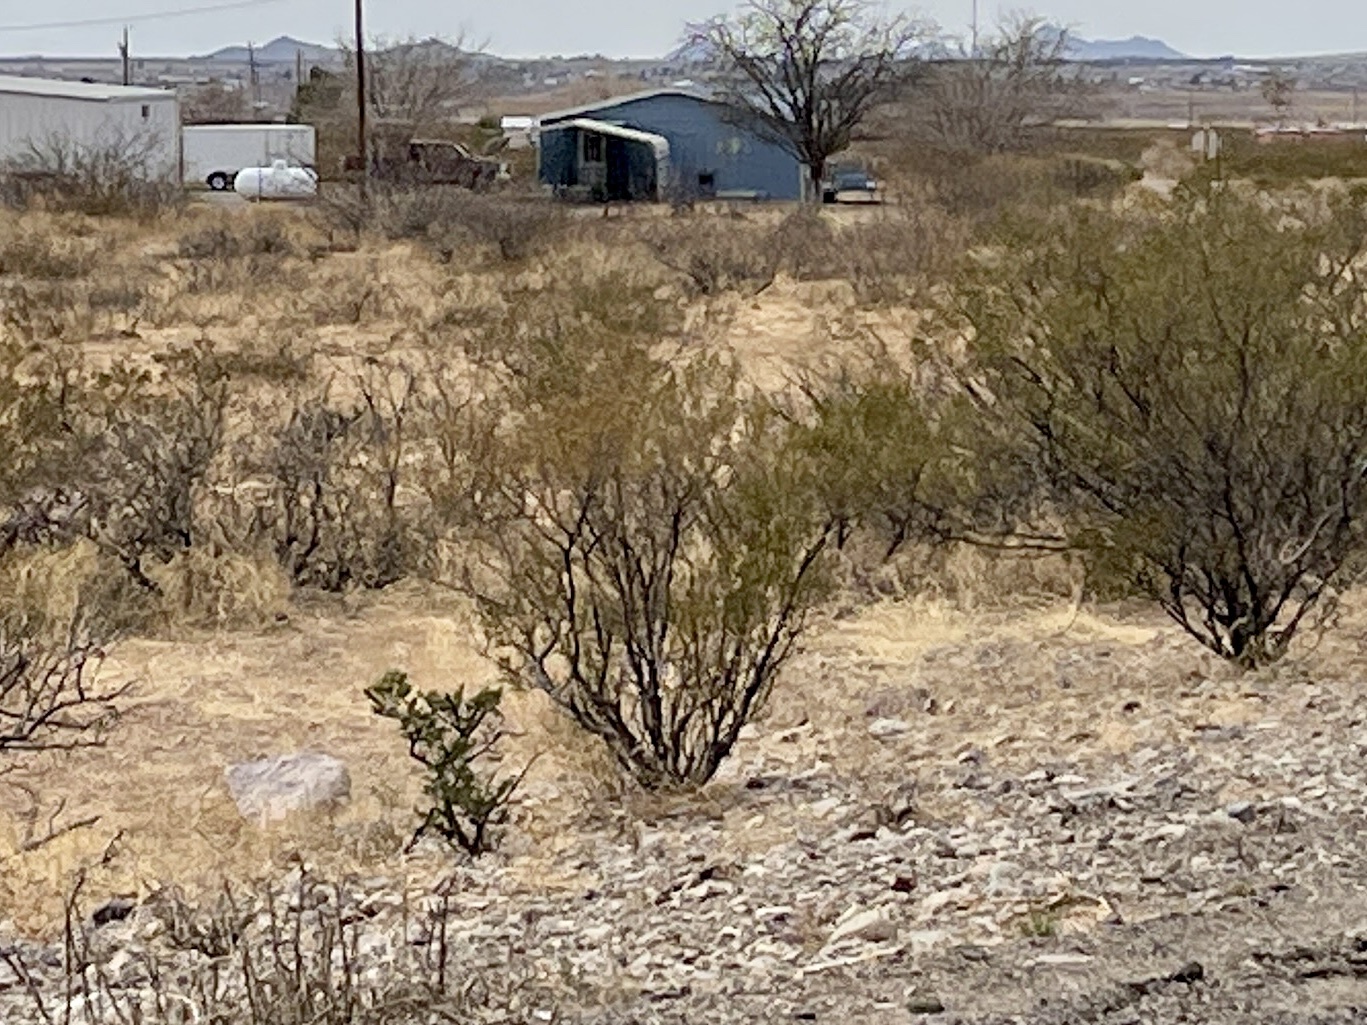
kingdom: Plantae
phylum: Tracheophyta
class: Magnoliopsida
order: Zygophyllales
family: Zygophyllaceae
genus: Larrea
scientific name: Larrea tridentata
